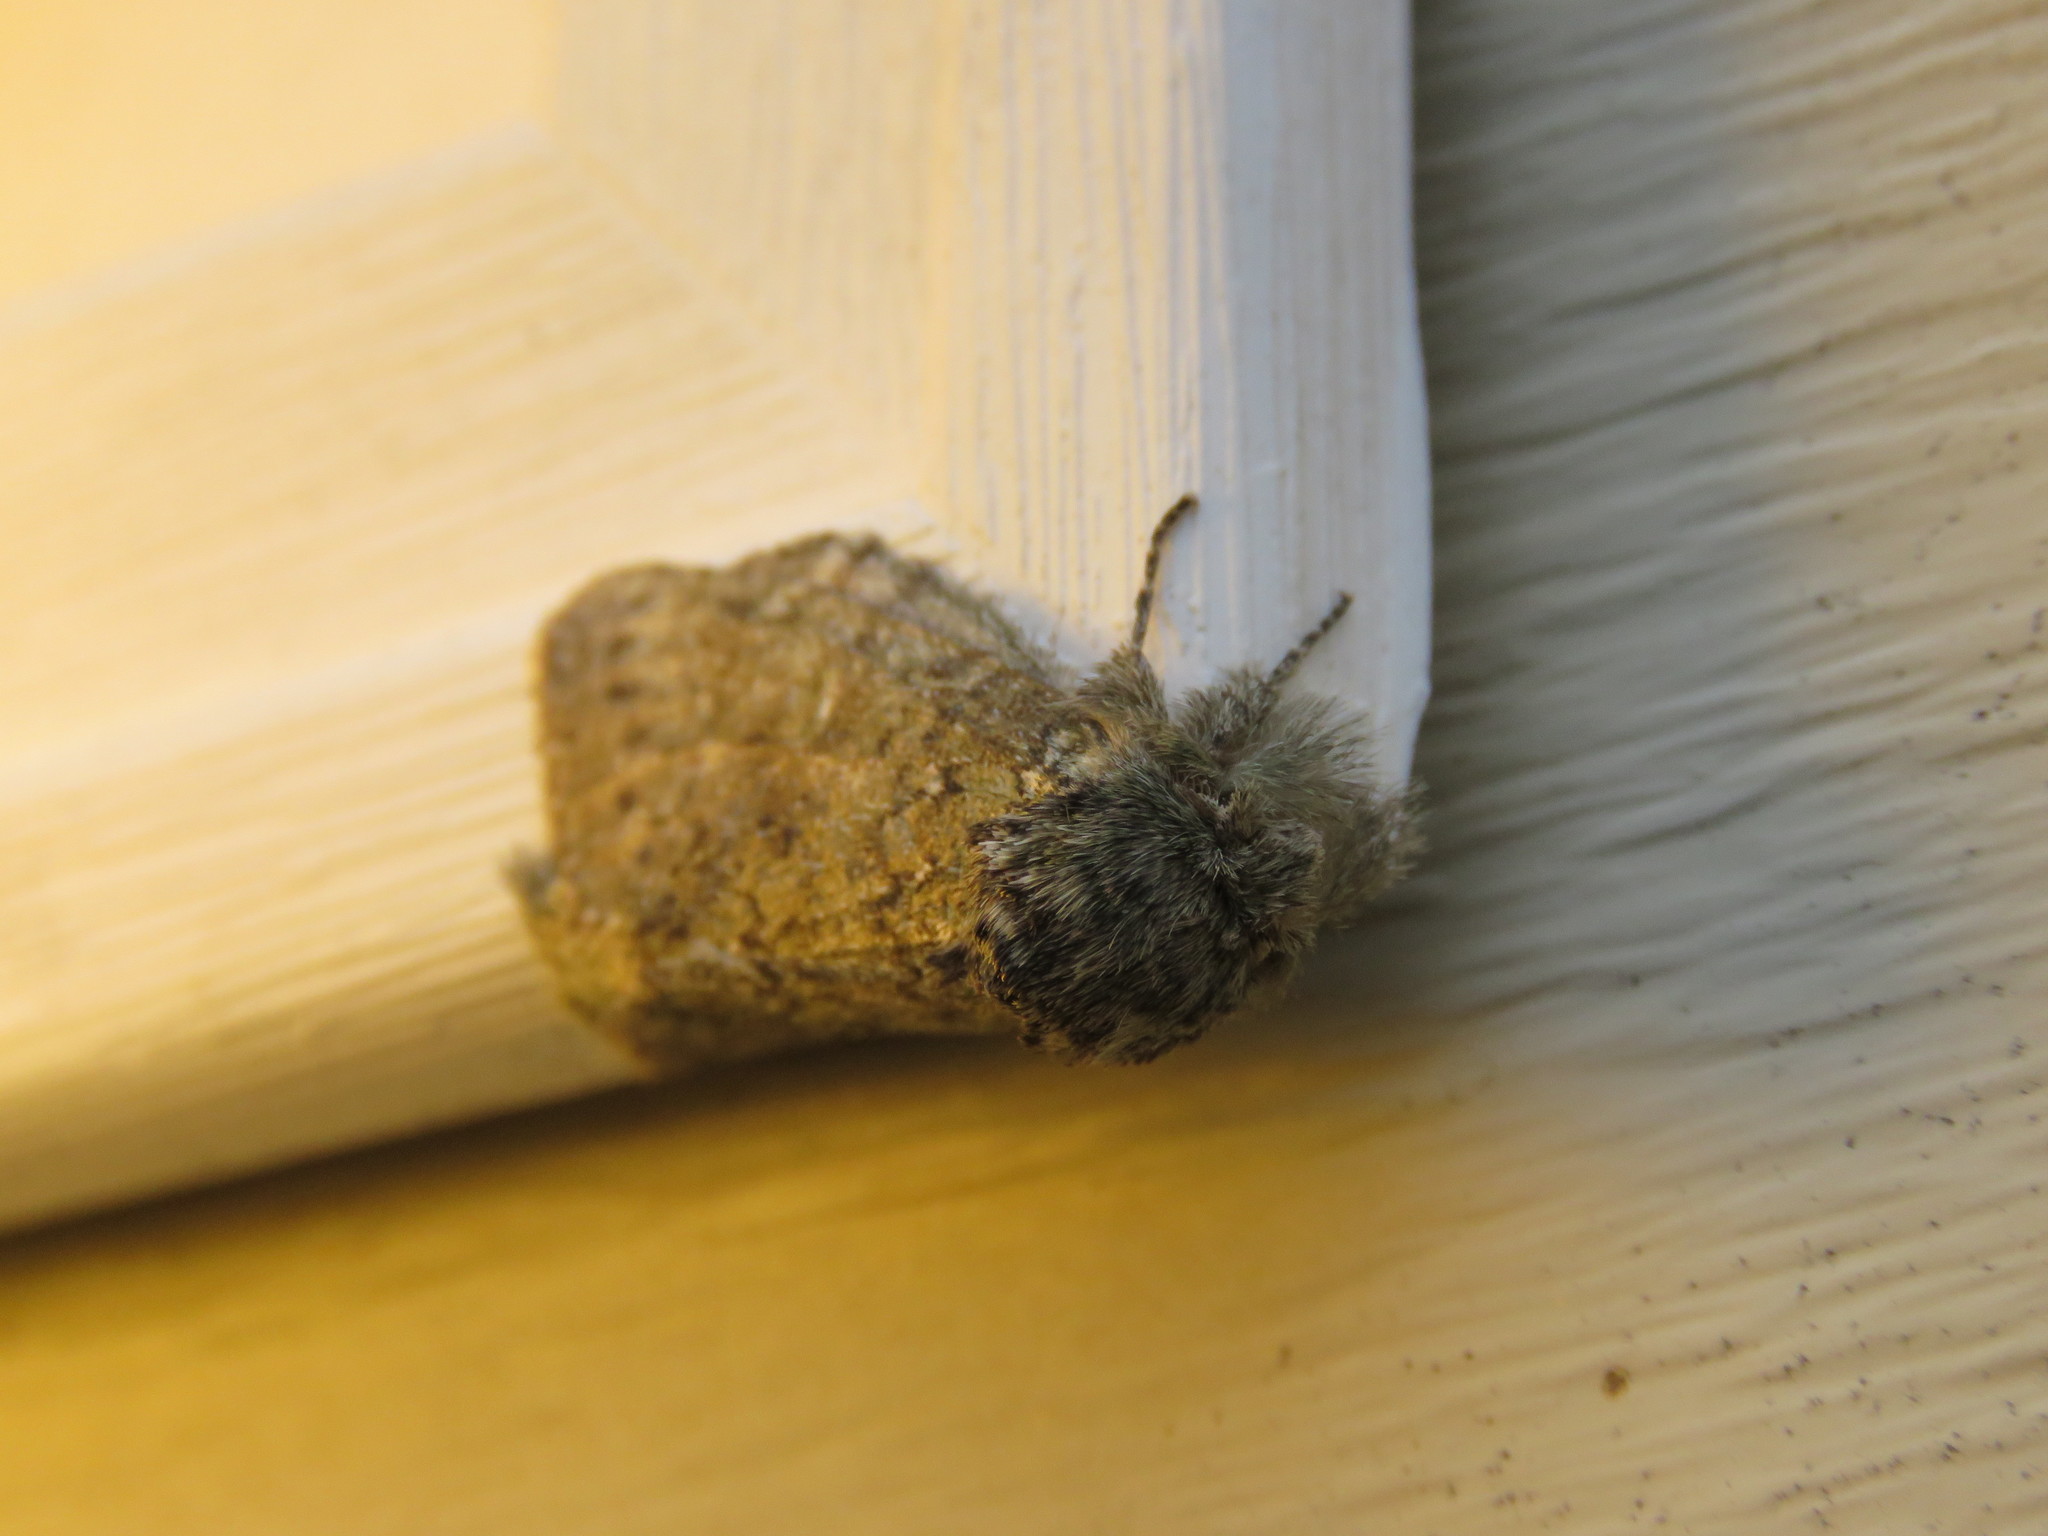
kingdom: Animalia
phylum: Arthropoda
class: Insecta
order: Lepidoptera
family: Notodontidae
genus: Disphragis
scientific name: Disphragis Cecrita guttivitta
